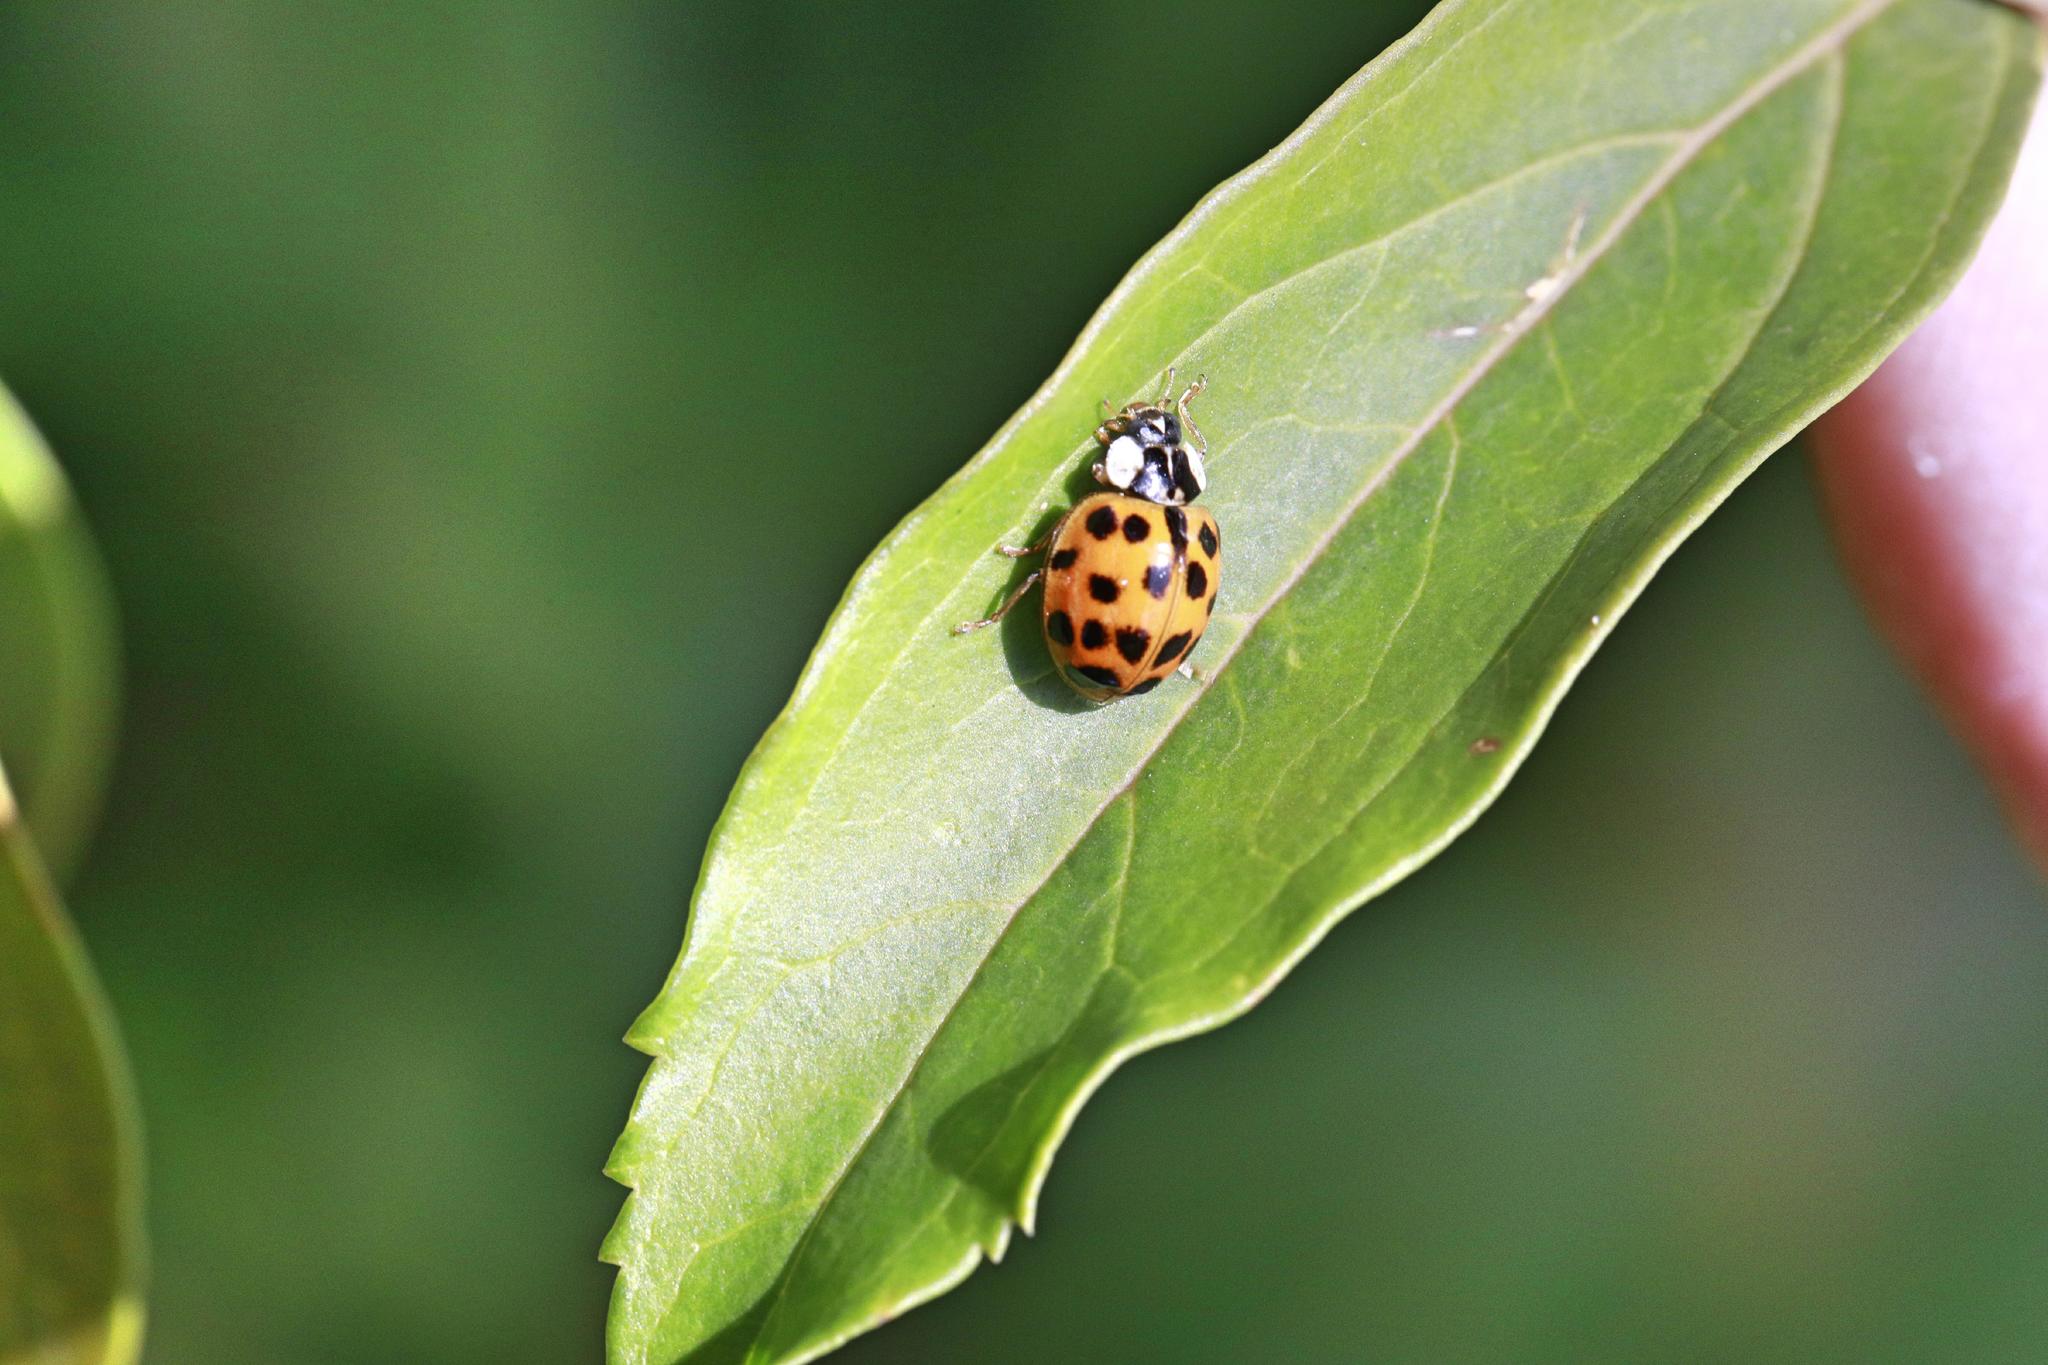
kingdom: Animalia
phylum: Arthropoda
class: Insecta
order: Coleoptera
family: Coccinellidae
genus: Harmonia
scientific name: Harmonia axyridis
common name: Harlequin ladybird
